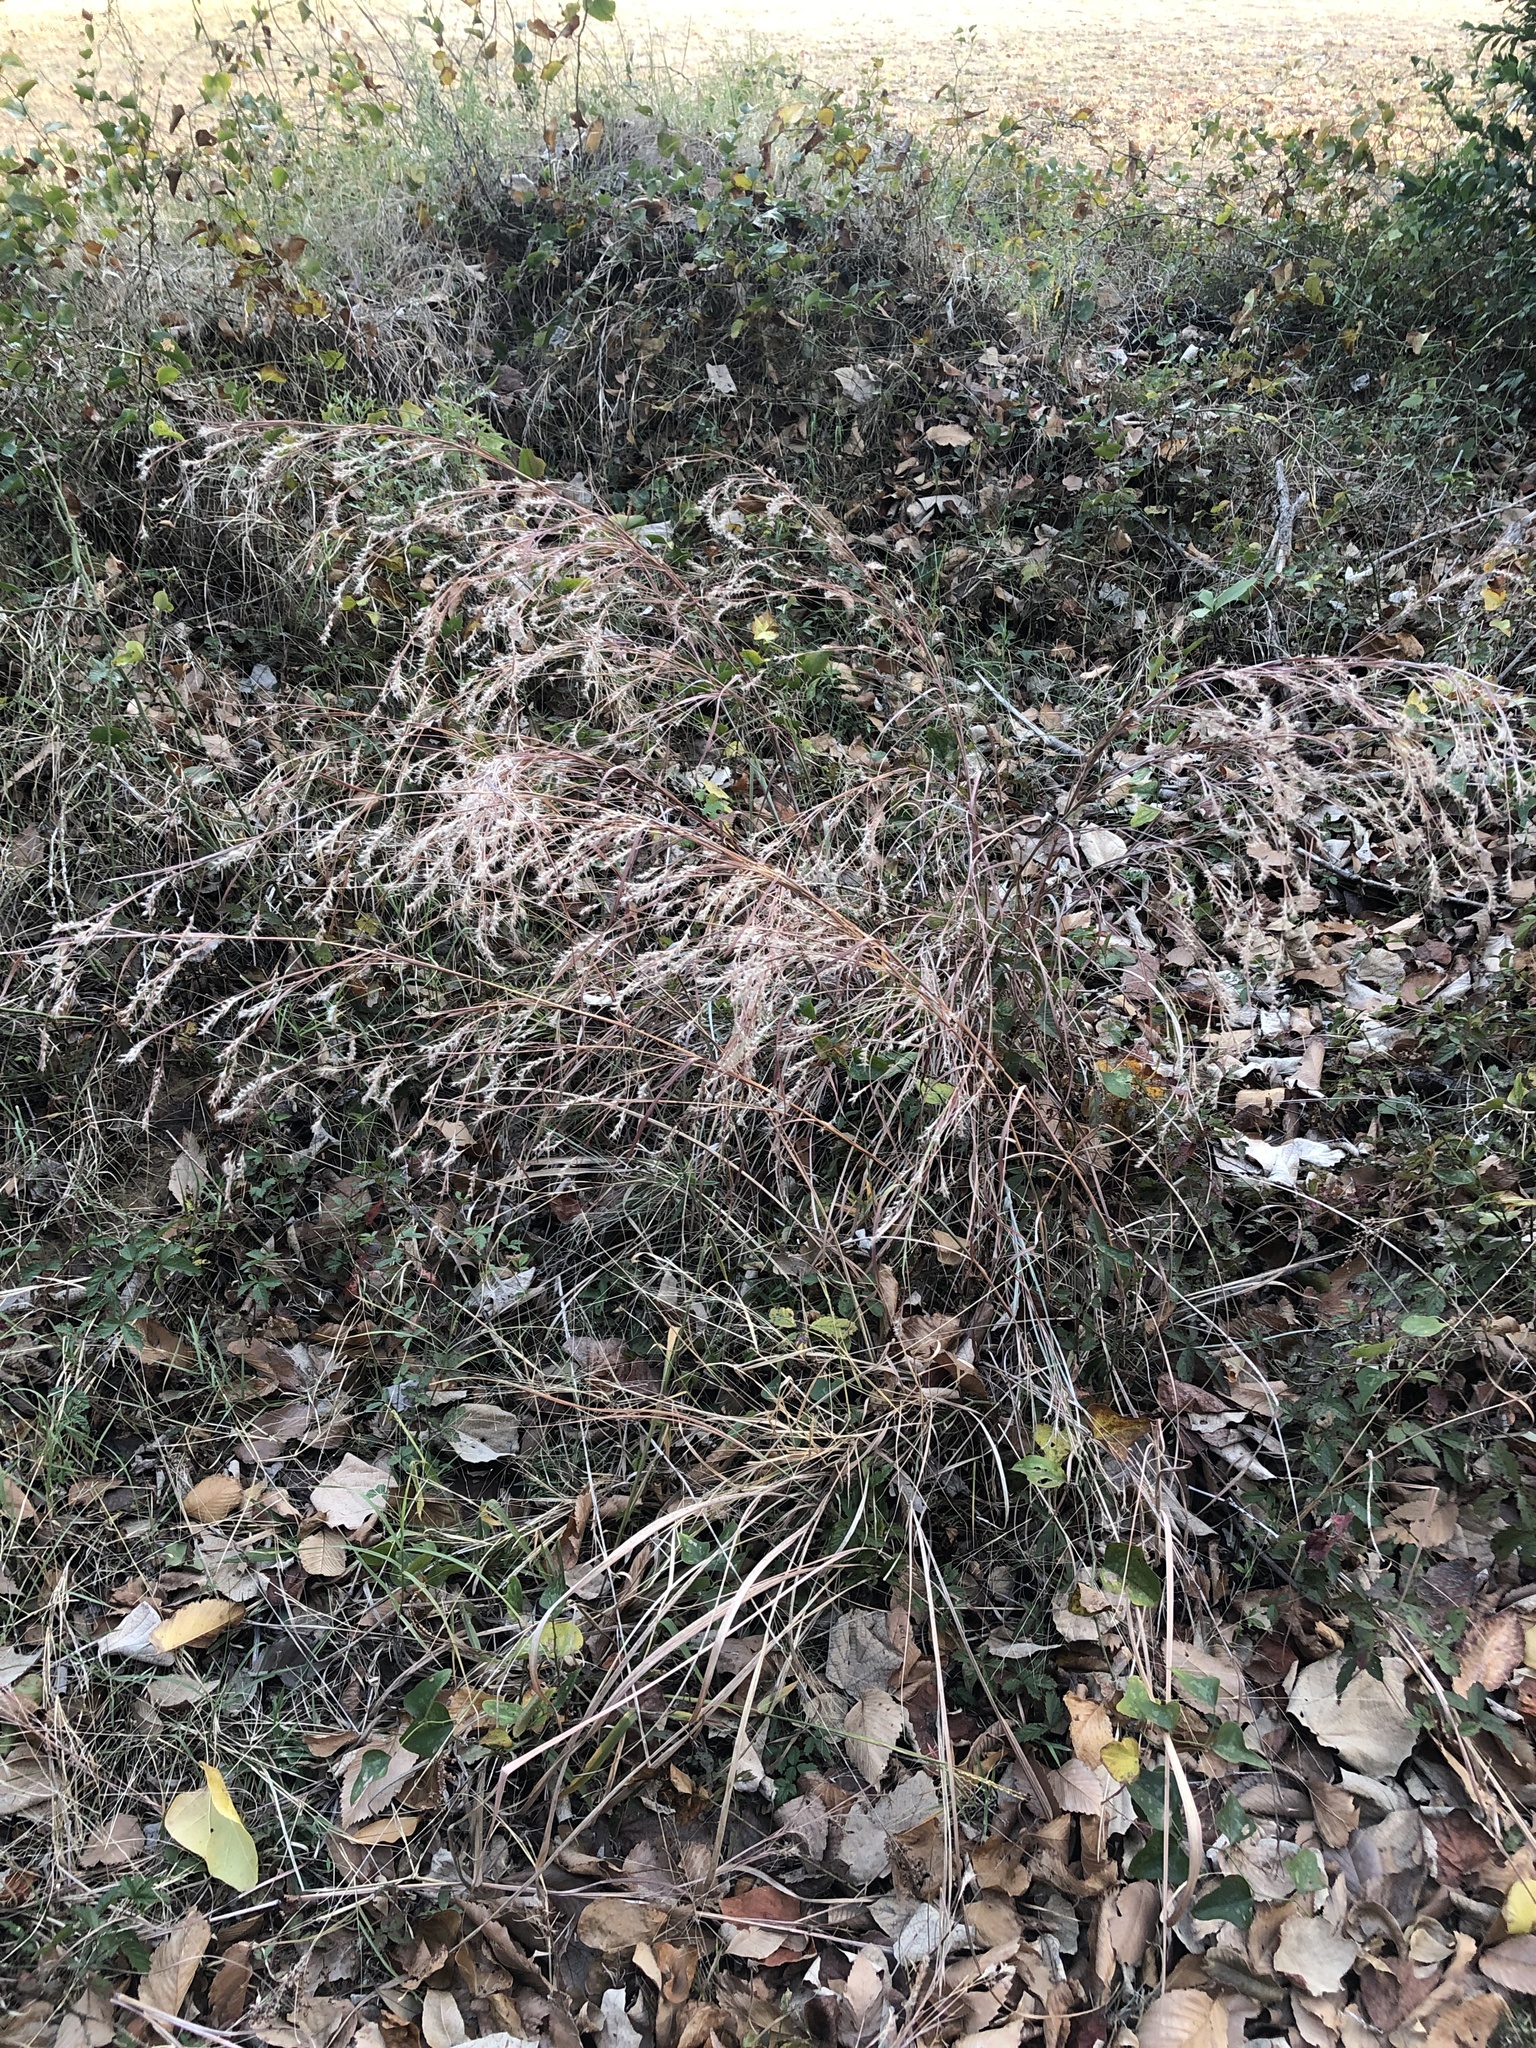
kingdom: Plantae
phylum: Tracheophyta
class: Liliopsida
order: Poales
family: Poaceae
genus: Schizachyrium
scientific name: Schizachyrium scoparium
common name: Little bluestem
